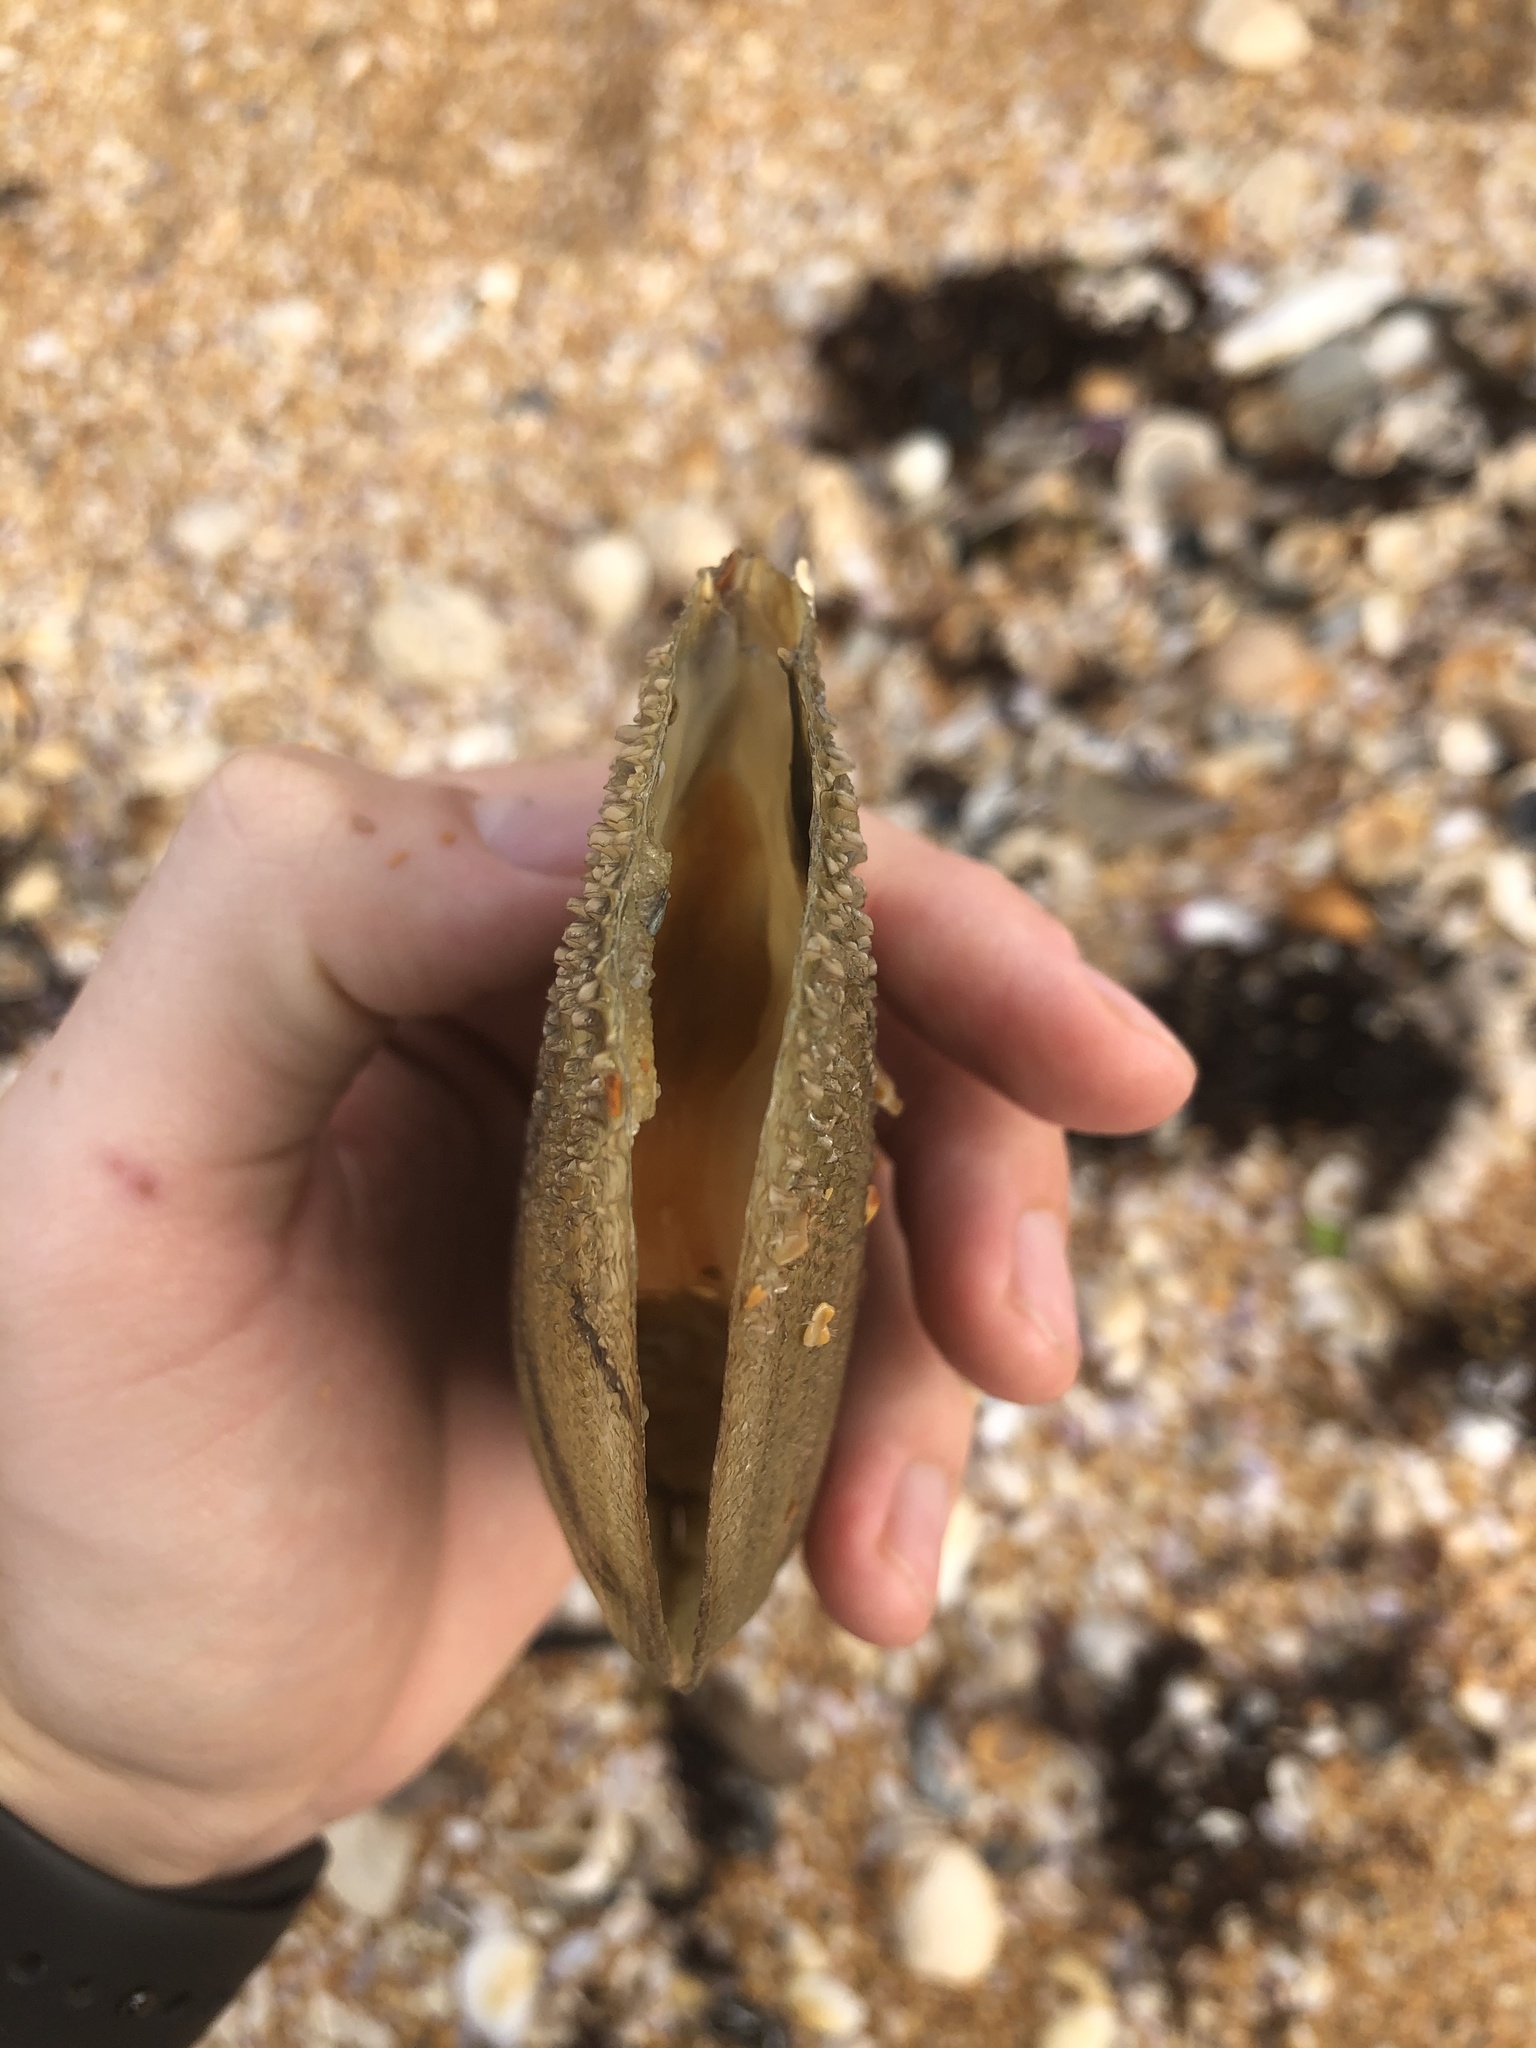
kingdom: Animalia
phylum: Mollusca
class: Bivalvia
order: Ostreida
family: Pinnidae
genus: Atrina
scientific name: Atrina serrata
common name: Saw-toothed penshell
